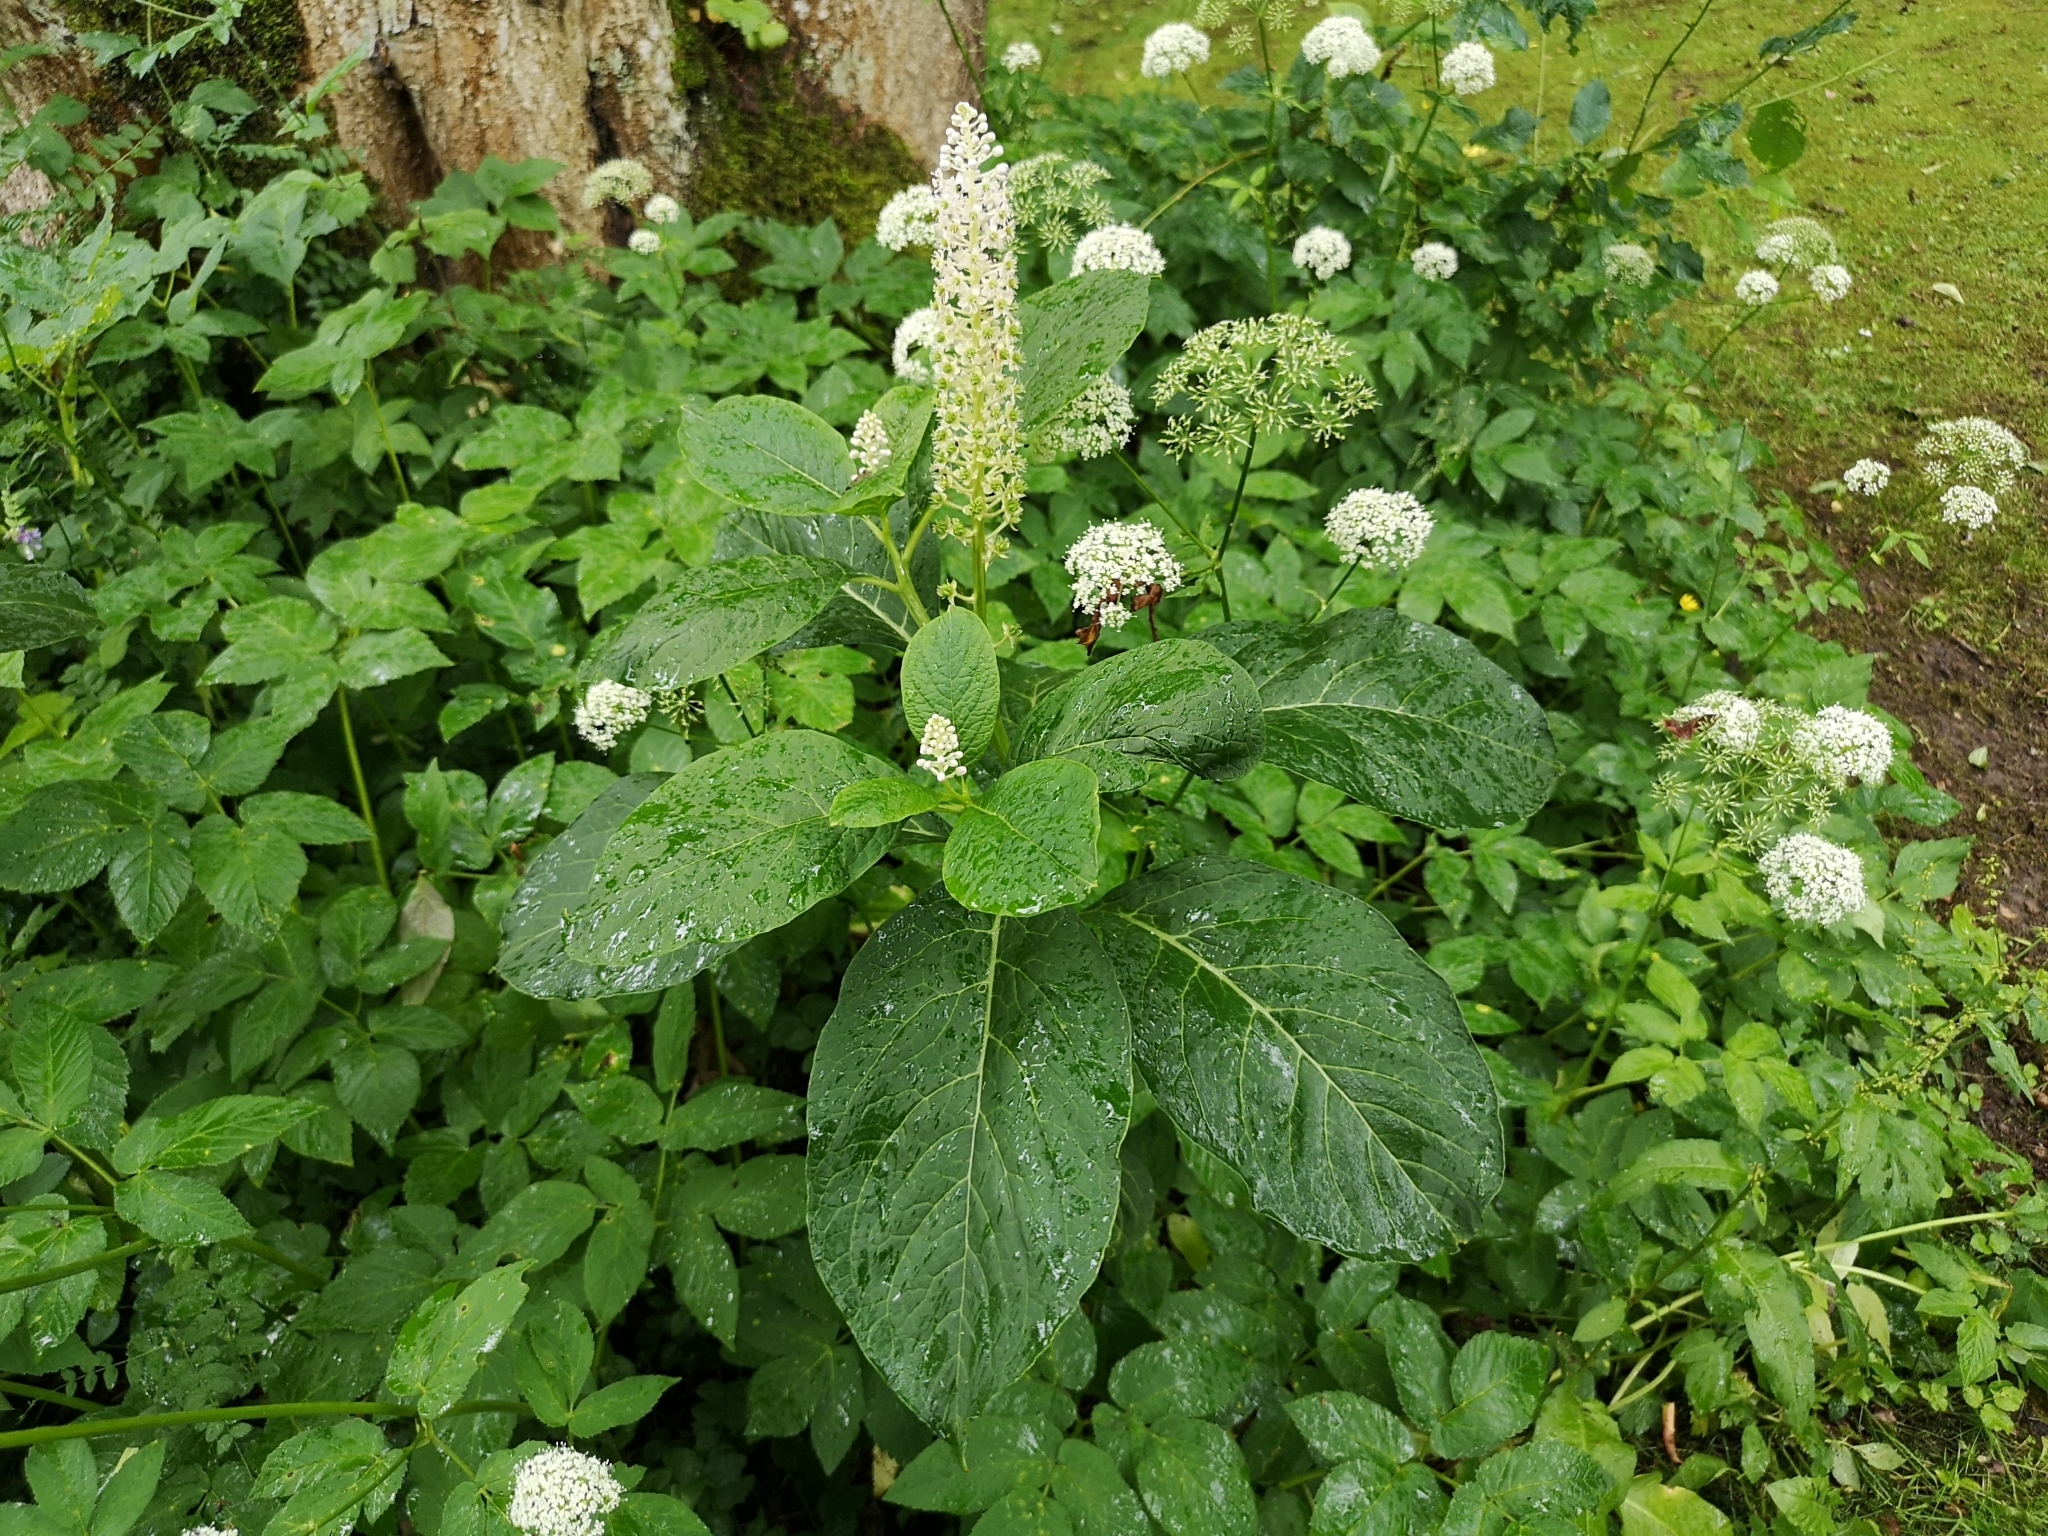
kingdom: Plantae
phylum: Tracheophyta
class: Magnoliopsida
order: Caryophyllales
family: Phytolaccaceae
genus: Phytolacca
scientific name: Phytolacca acinosa
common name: Indian pokeweed
